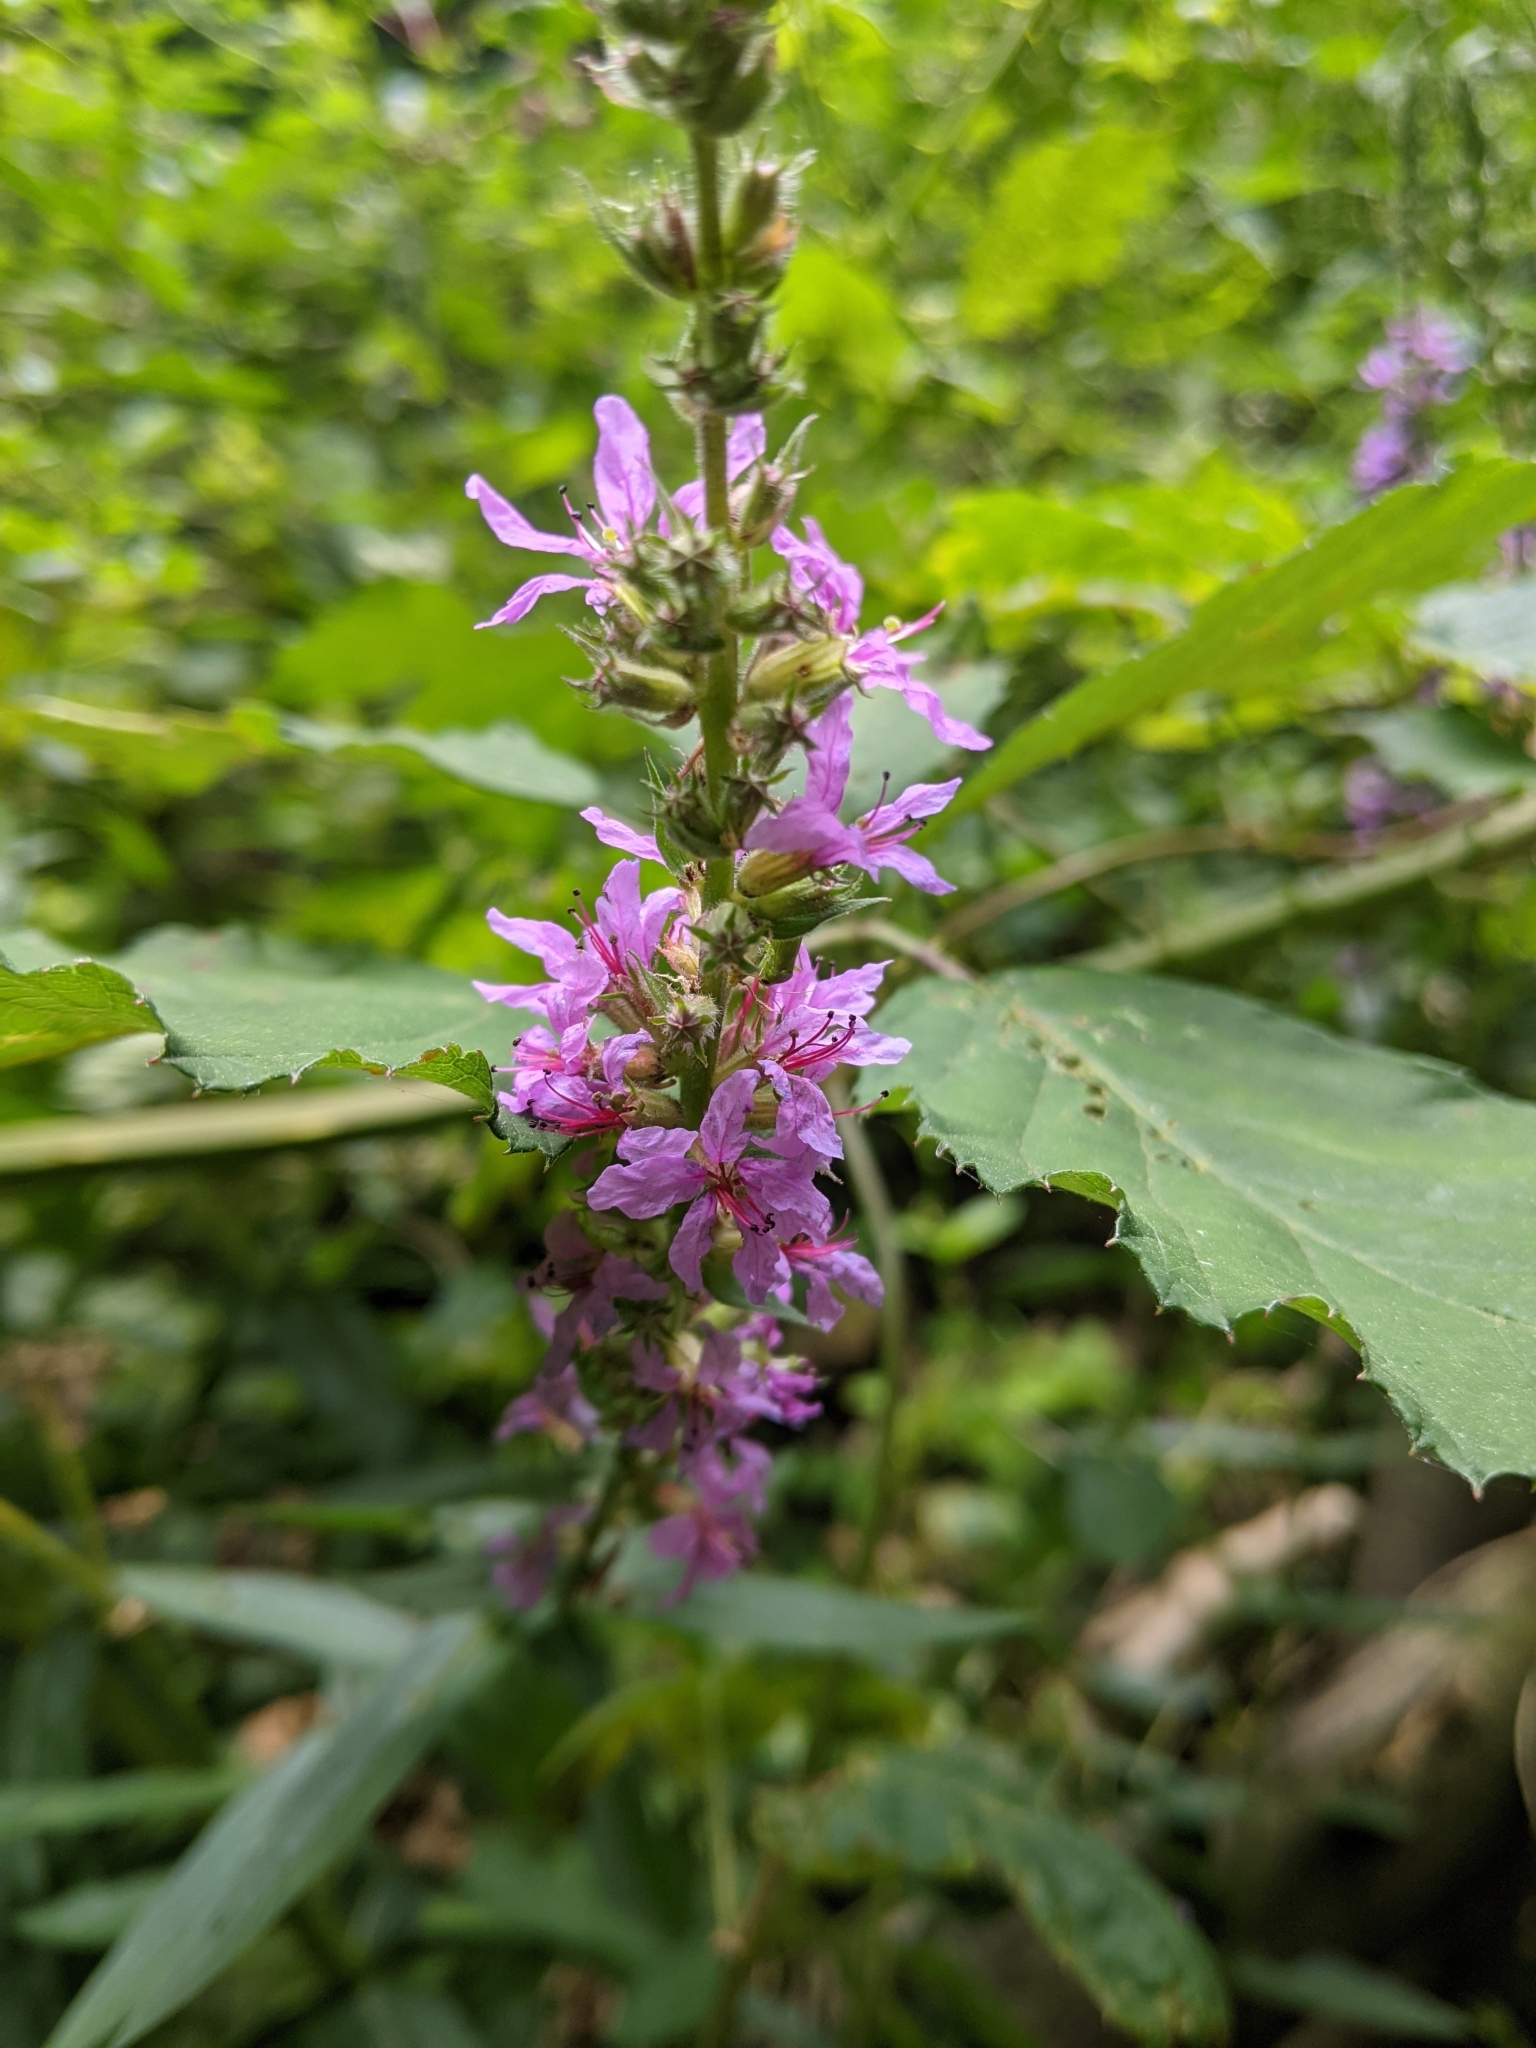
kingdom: Plantae
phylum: Tracheophyta
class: Magnoliopsida
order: Myrtales
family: Lythraceae
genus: Lythrum
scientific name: Lythrum salicaria
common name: Purple loosestrife
